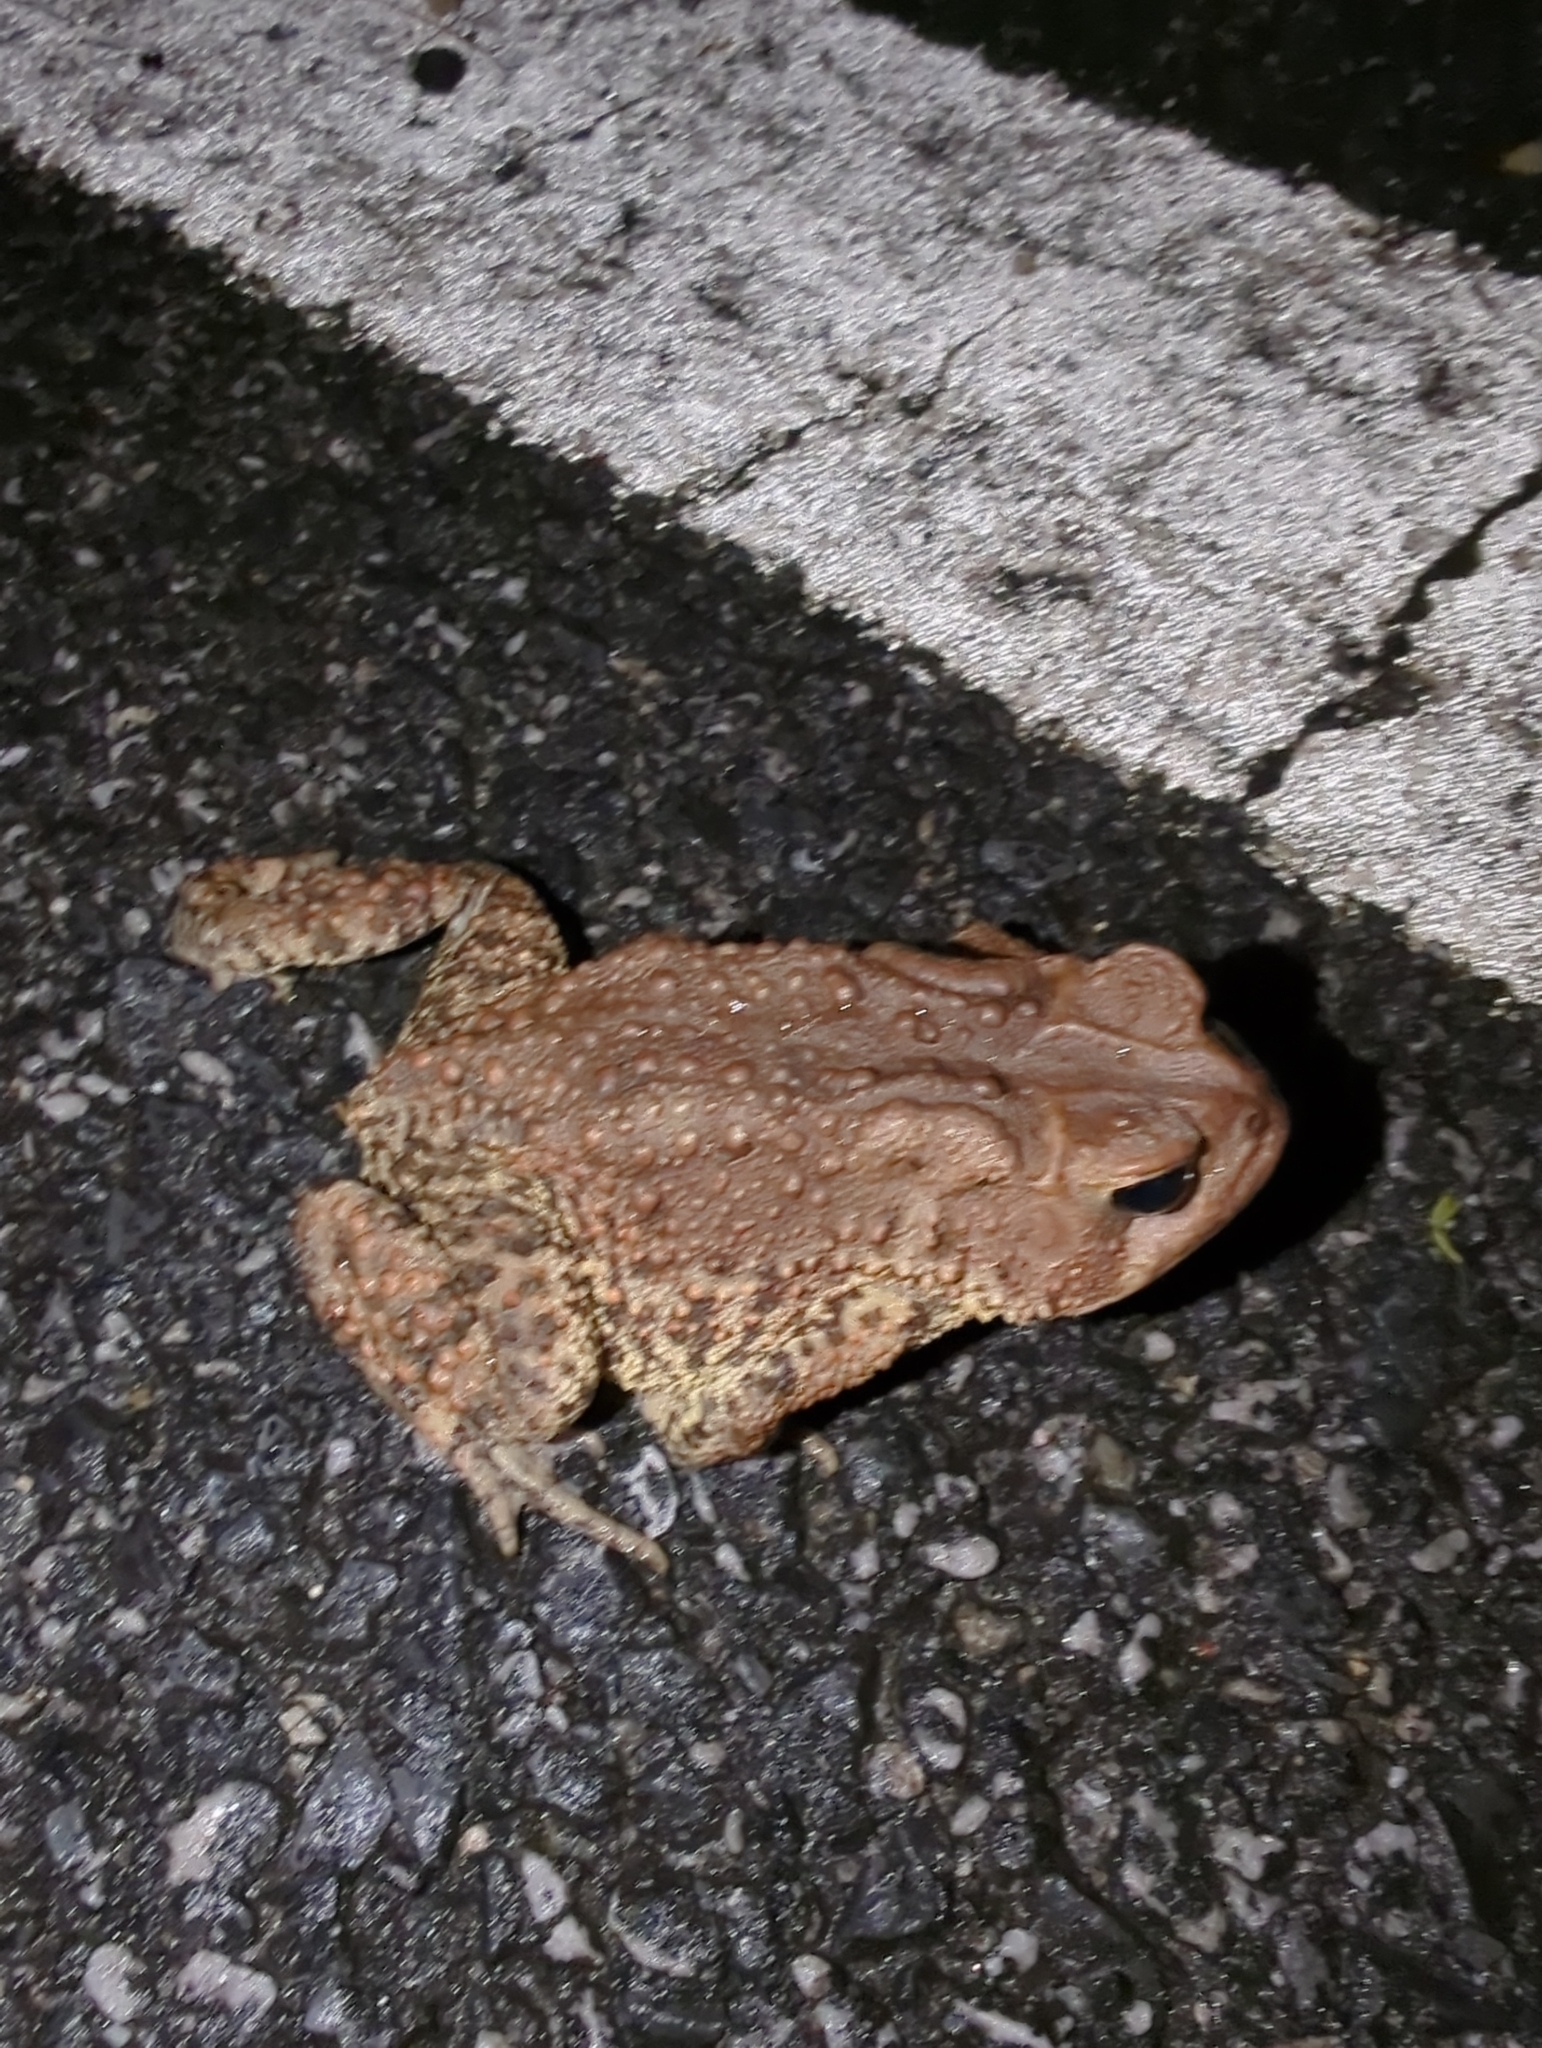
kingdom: Animalia
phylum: Chordata
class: Amphibia
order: Anura
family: Bufonidae
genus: Anaxyrus
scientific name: Anaxyrus americanus
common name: American toad
